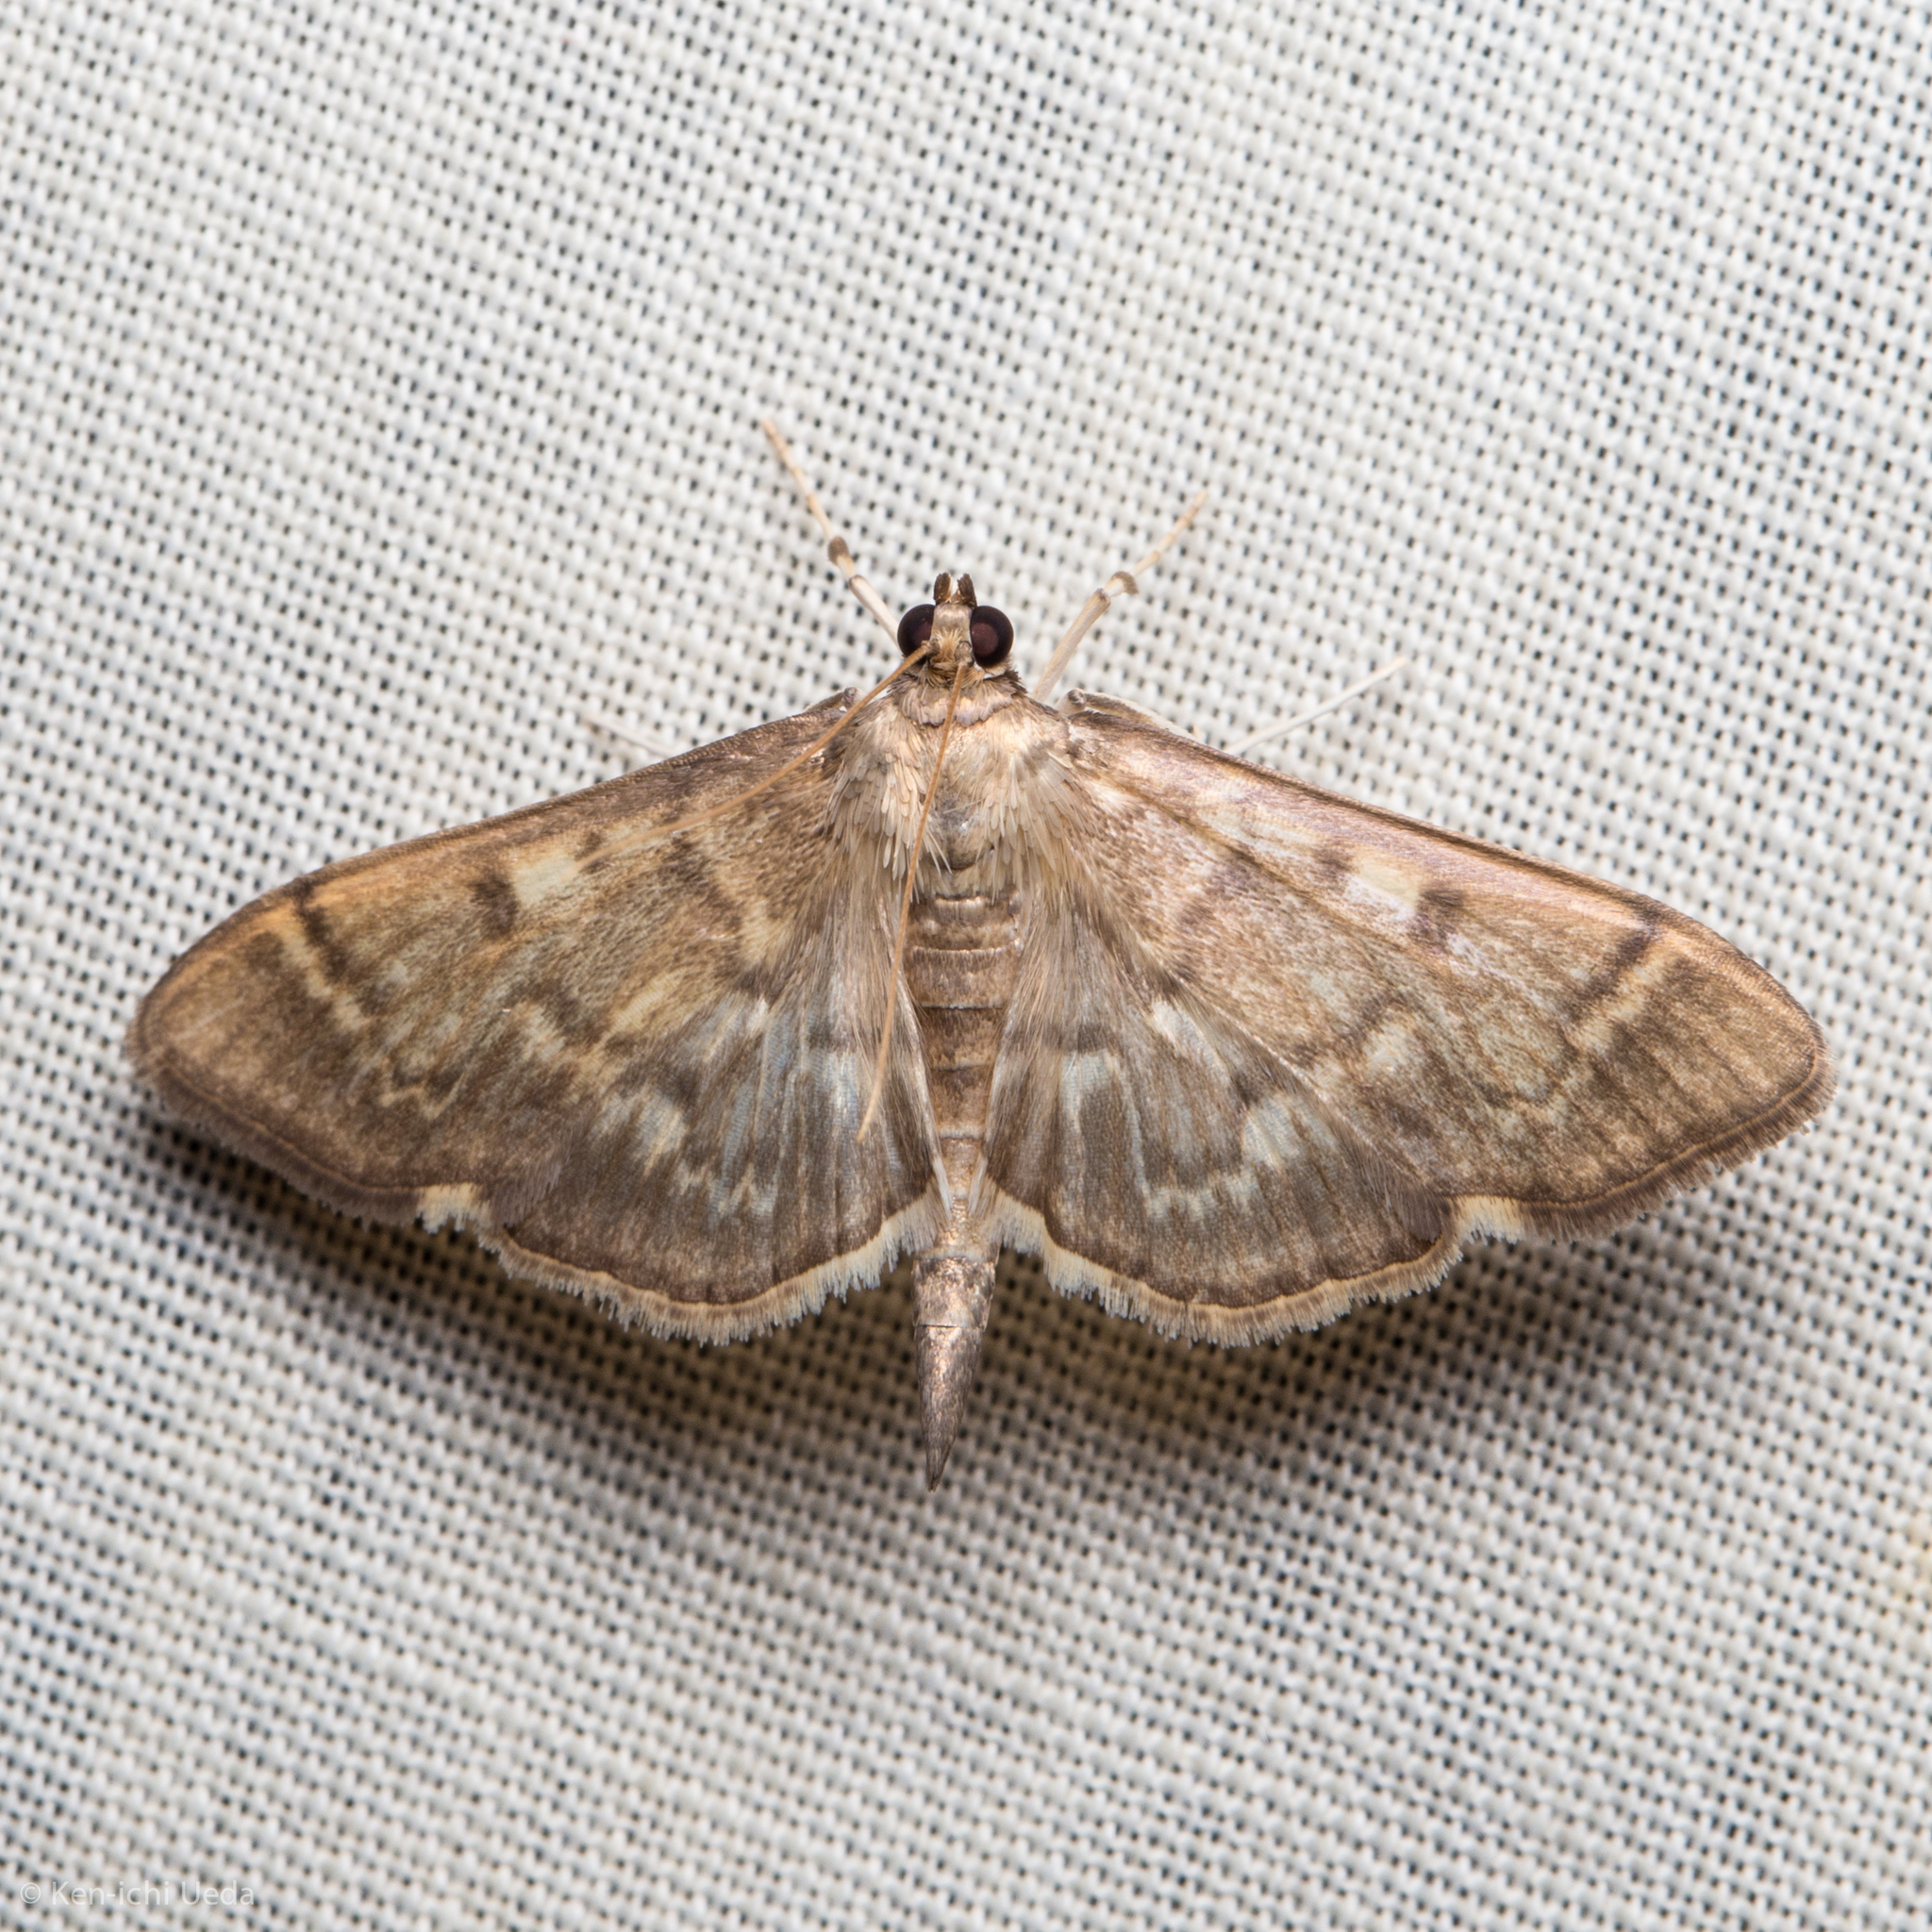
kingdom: Animalia
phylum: Arthropoda
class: Insecta
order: Lepidoptera
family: Crambidae
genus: Herpetogramma
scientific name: Herpetogramma aeglealis
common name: Serpentine webworm moth
